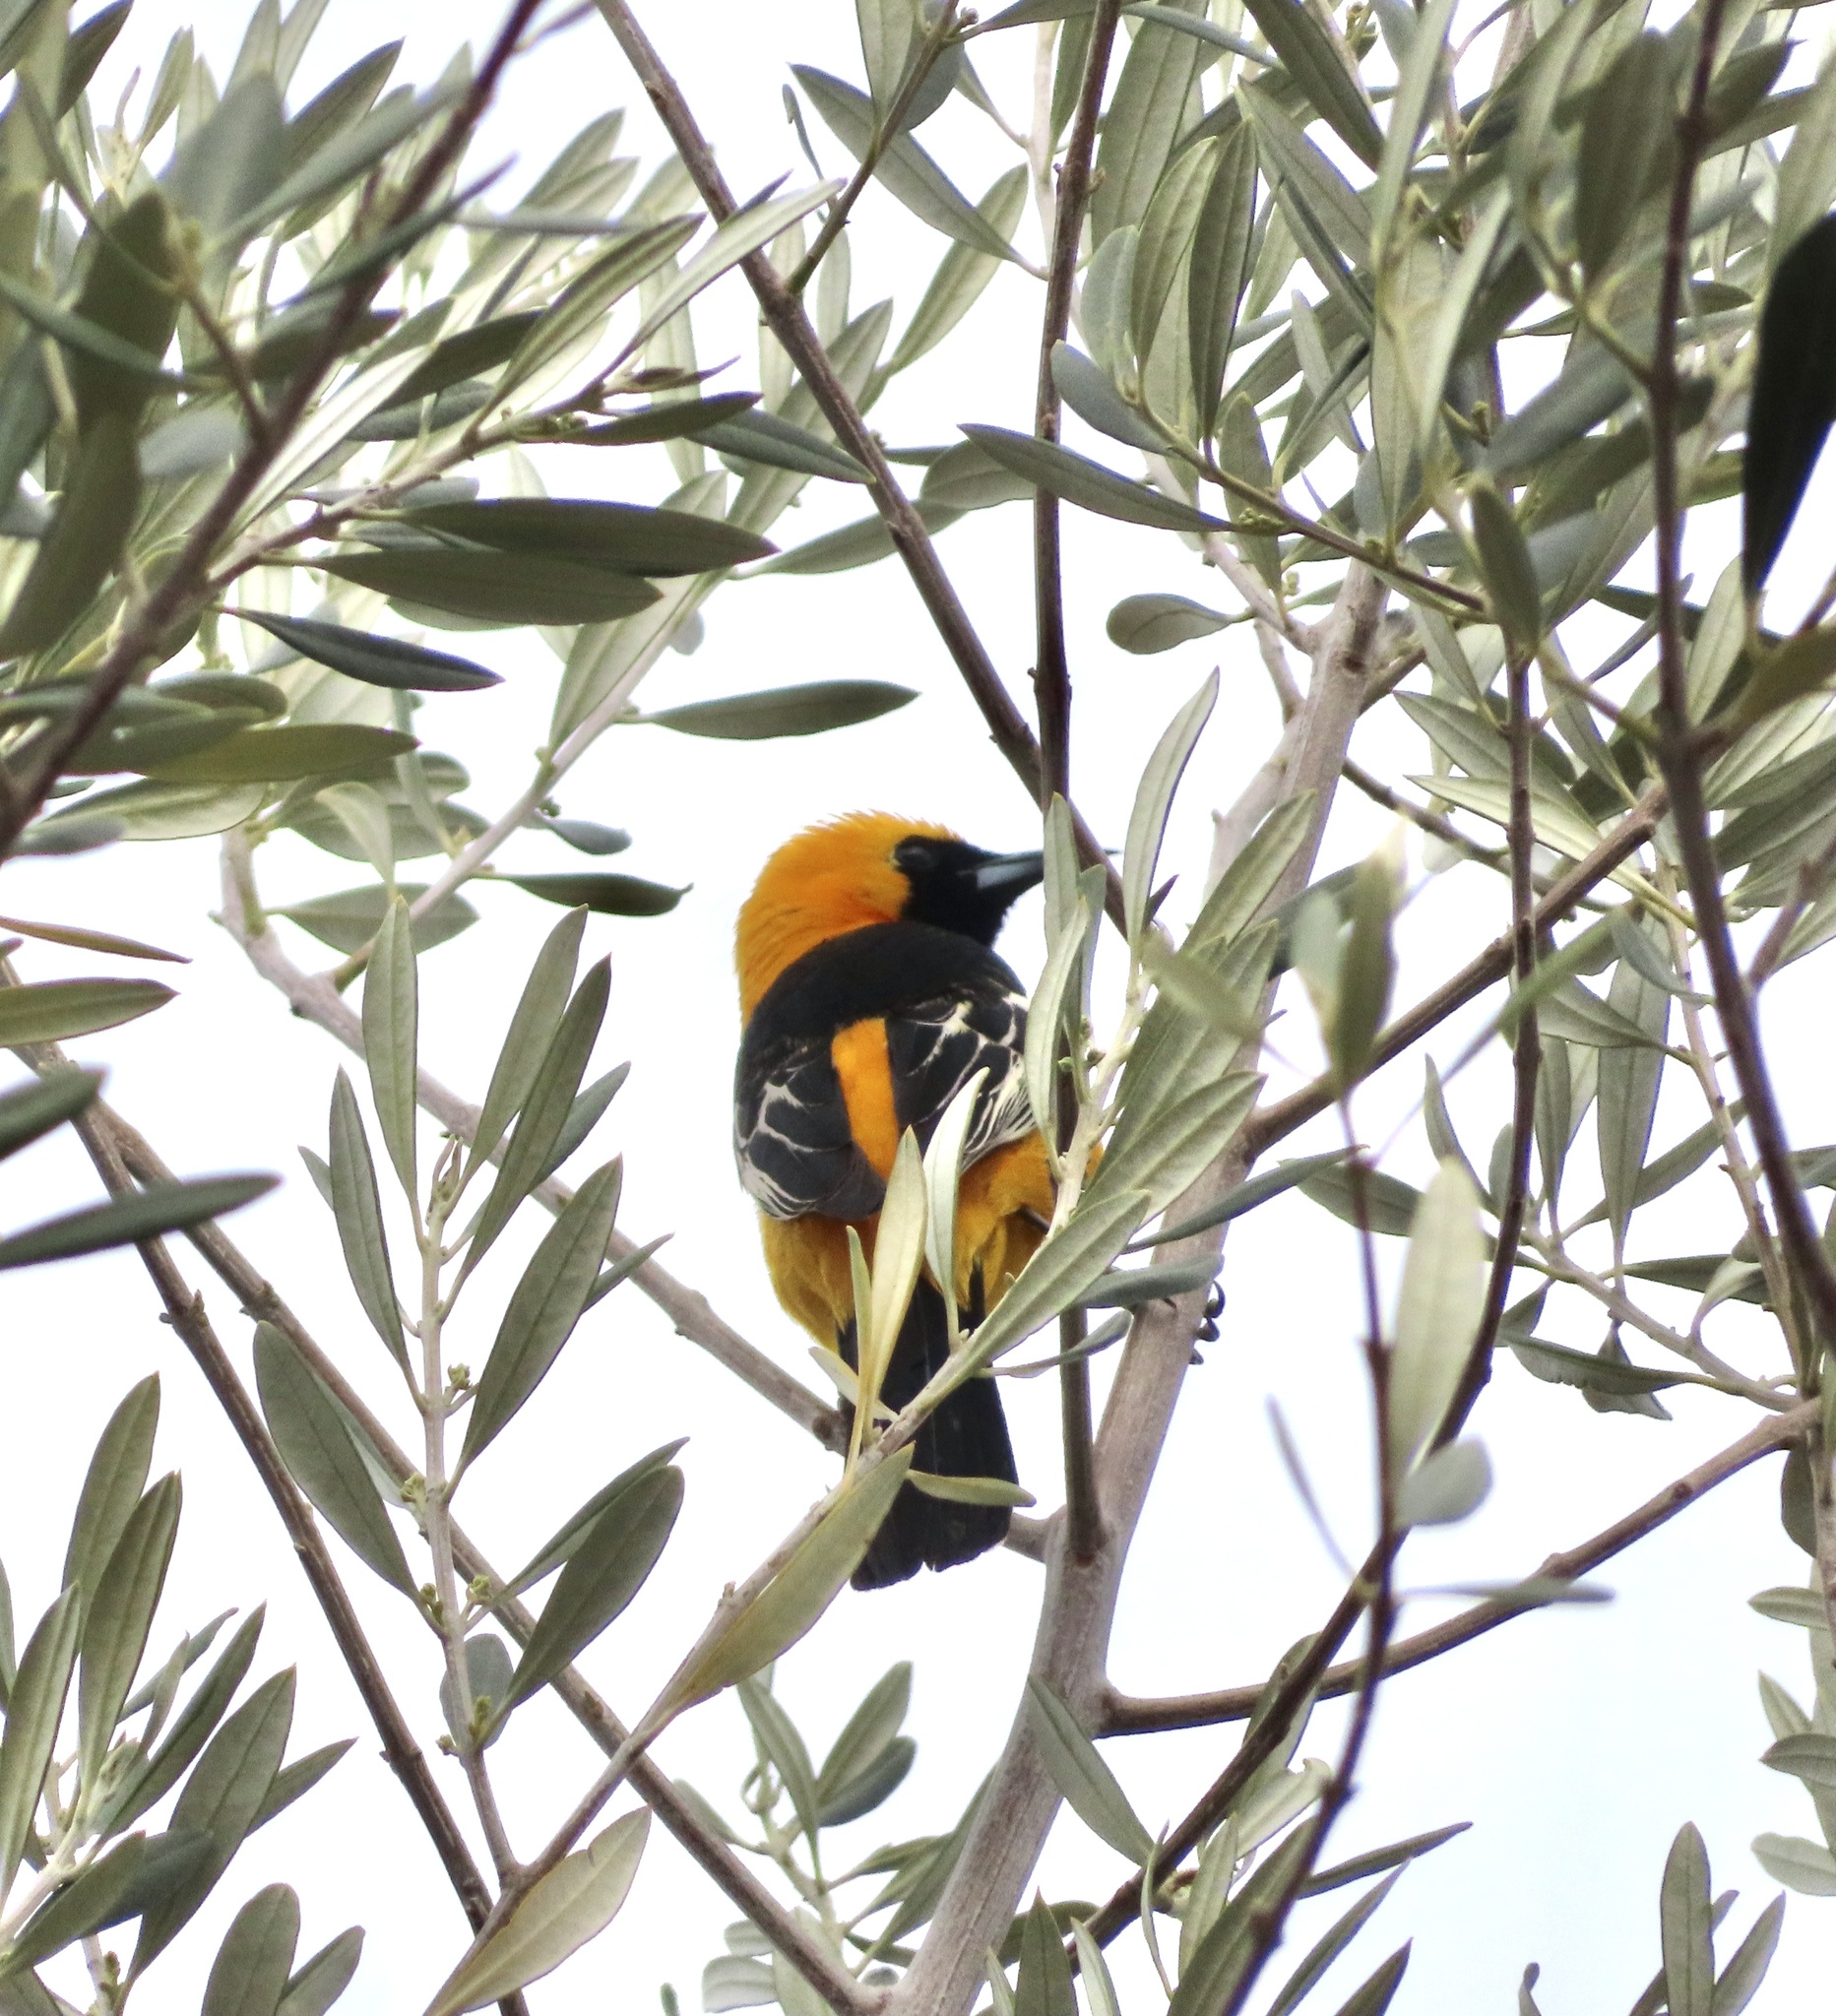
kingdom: Animalia
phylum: Chordata
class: Aves
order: Passeriformes
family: Icteridae
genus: Icterus
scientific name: Icterus cucullatus
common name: Hooded oriole
